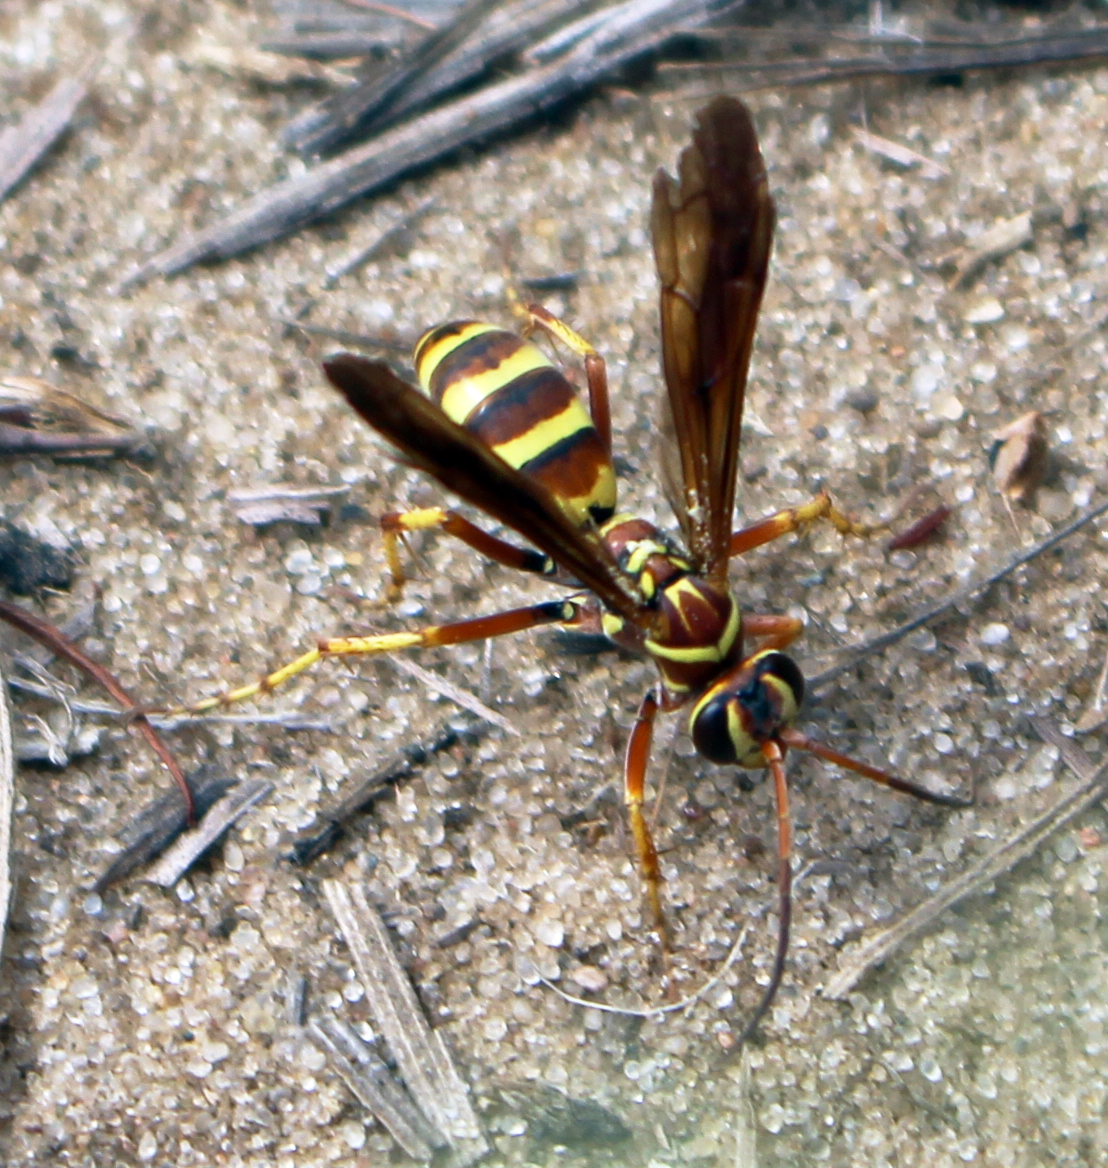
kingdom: Animalia
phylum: Arthropoda
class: Insecta
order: Hymenoptera
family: Pompilidae
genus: Poecilopompilus
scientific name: Poecilopompilus interruptus
